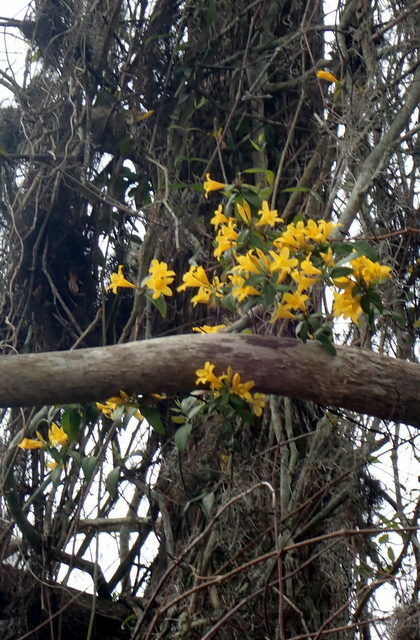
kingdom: Plantae
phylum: Tracheophyta
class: Magnoliopsida
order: Gentianales
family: Gelsemiaceae
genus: Gelsemium
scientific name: Gelsemium sempervirens
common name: Carolina-jasmine
